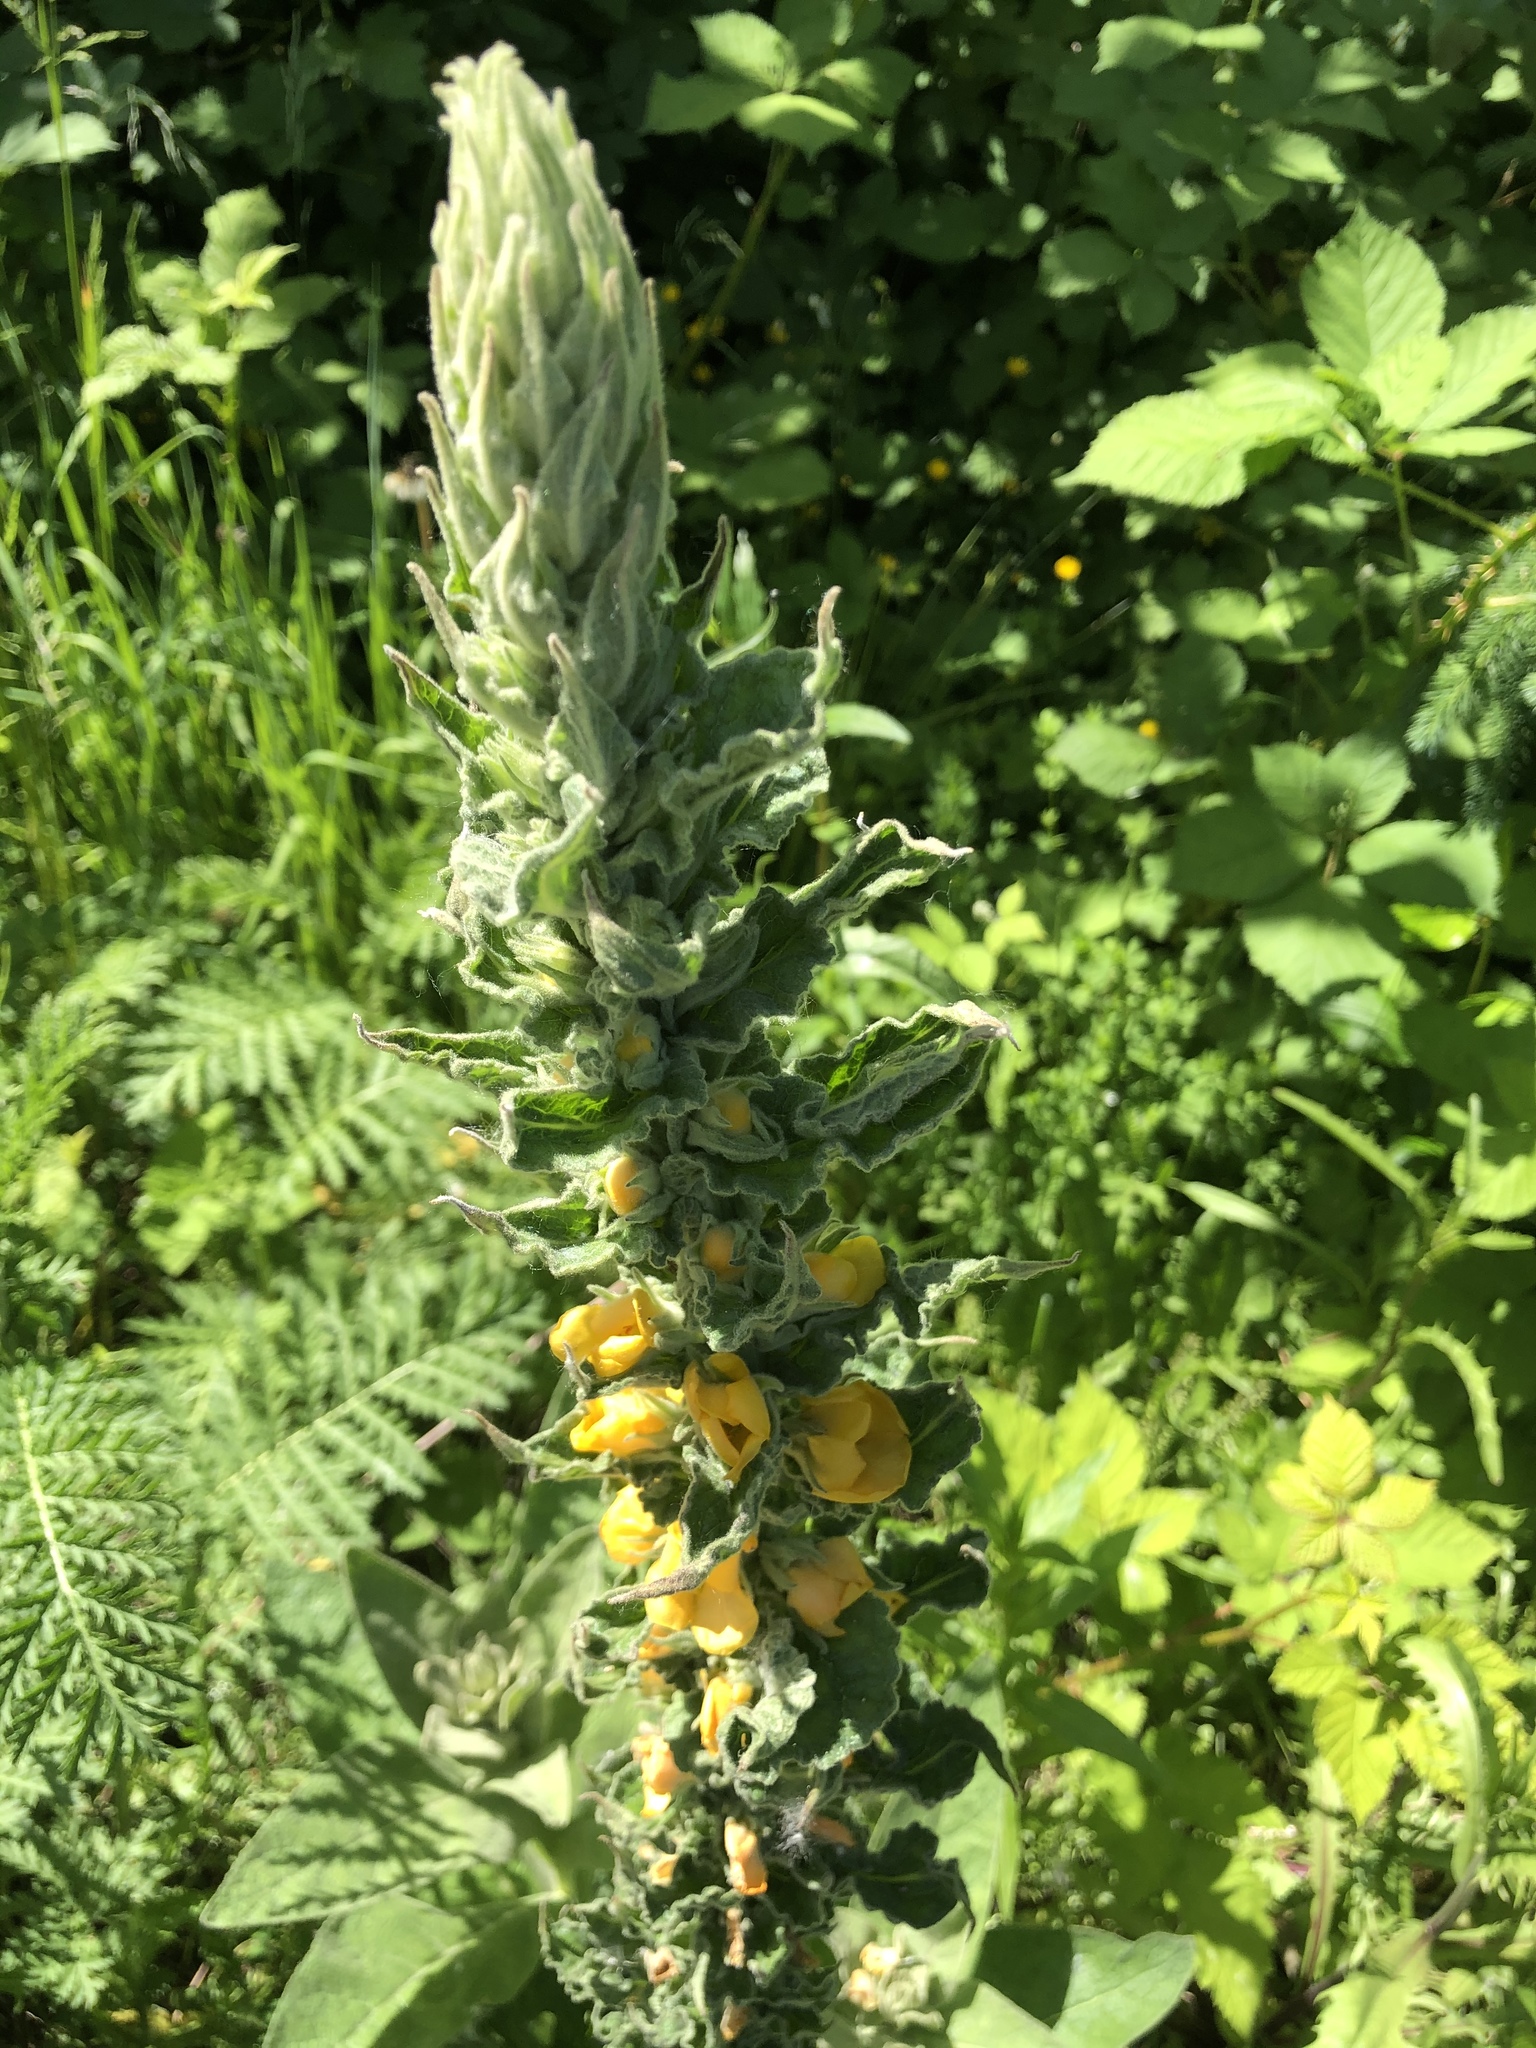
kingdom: Plantae
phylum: Tracheophyta
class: Magnoliopsida
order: Lamiales
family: Scrophulariaceae
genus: Verbascum
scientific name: Verbascum thapsus
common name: Common mullein
